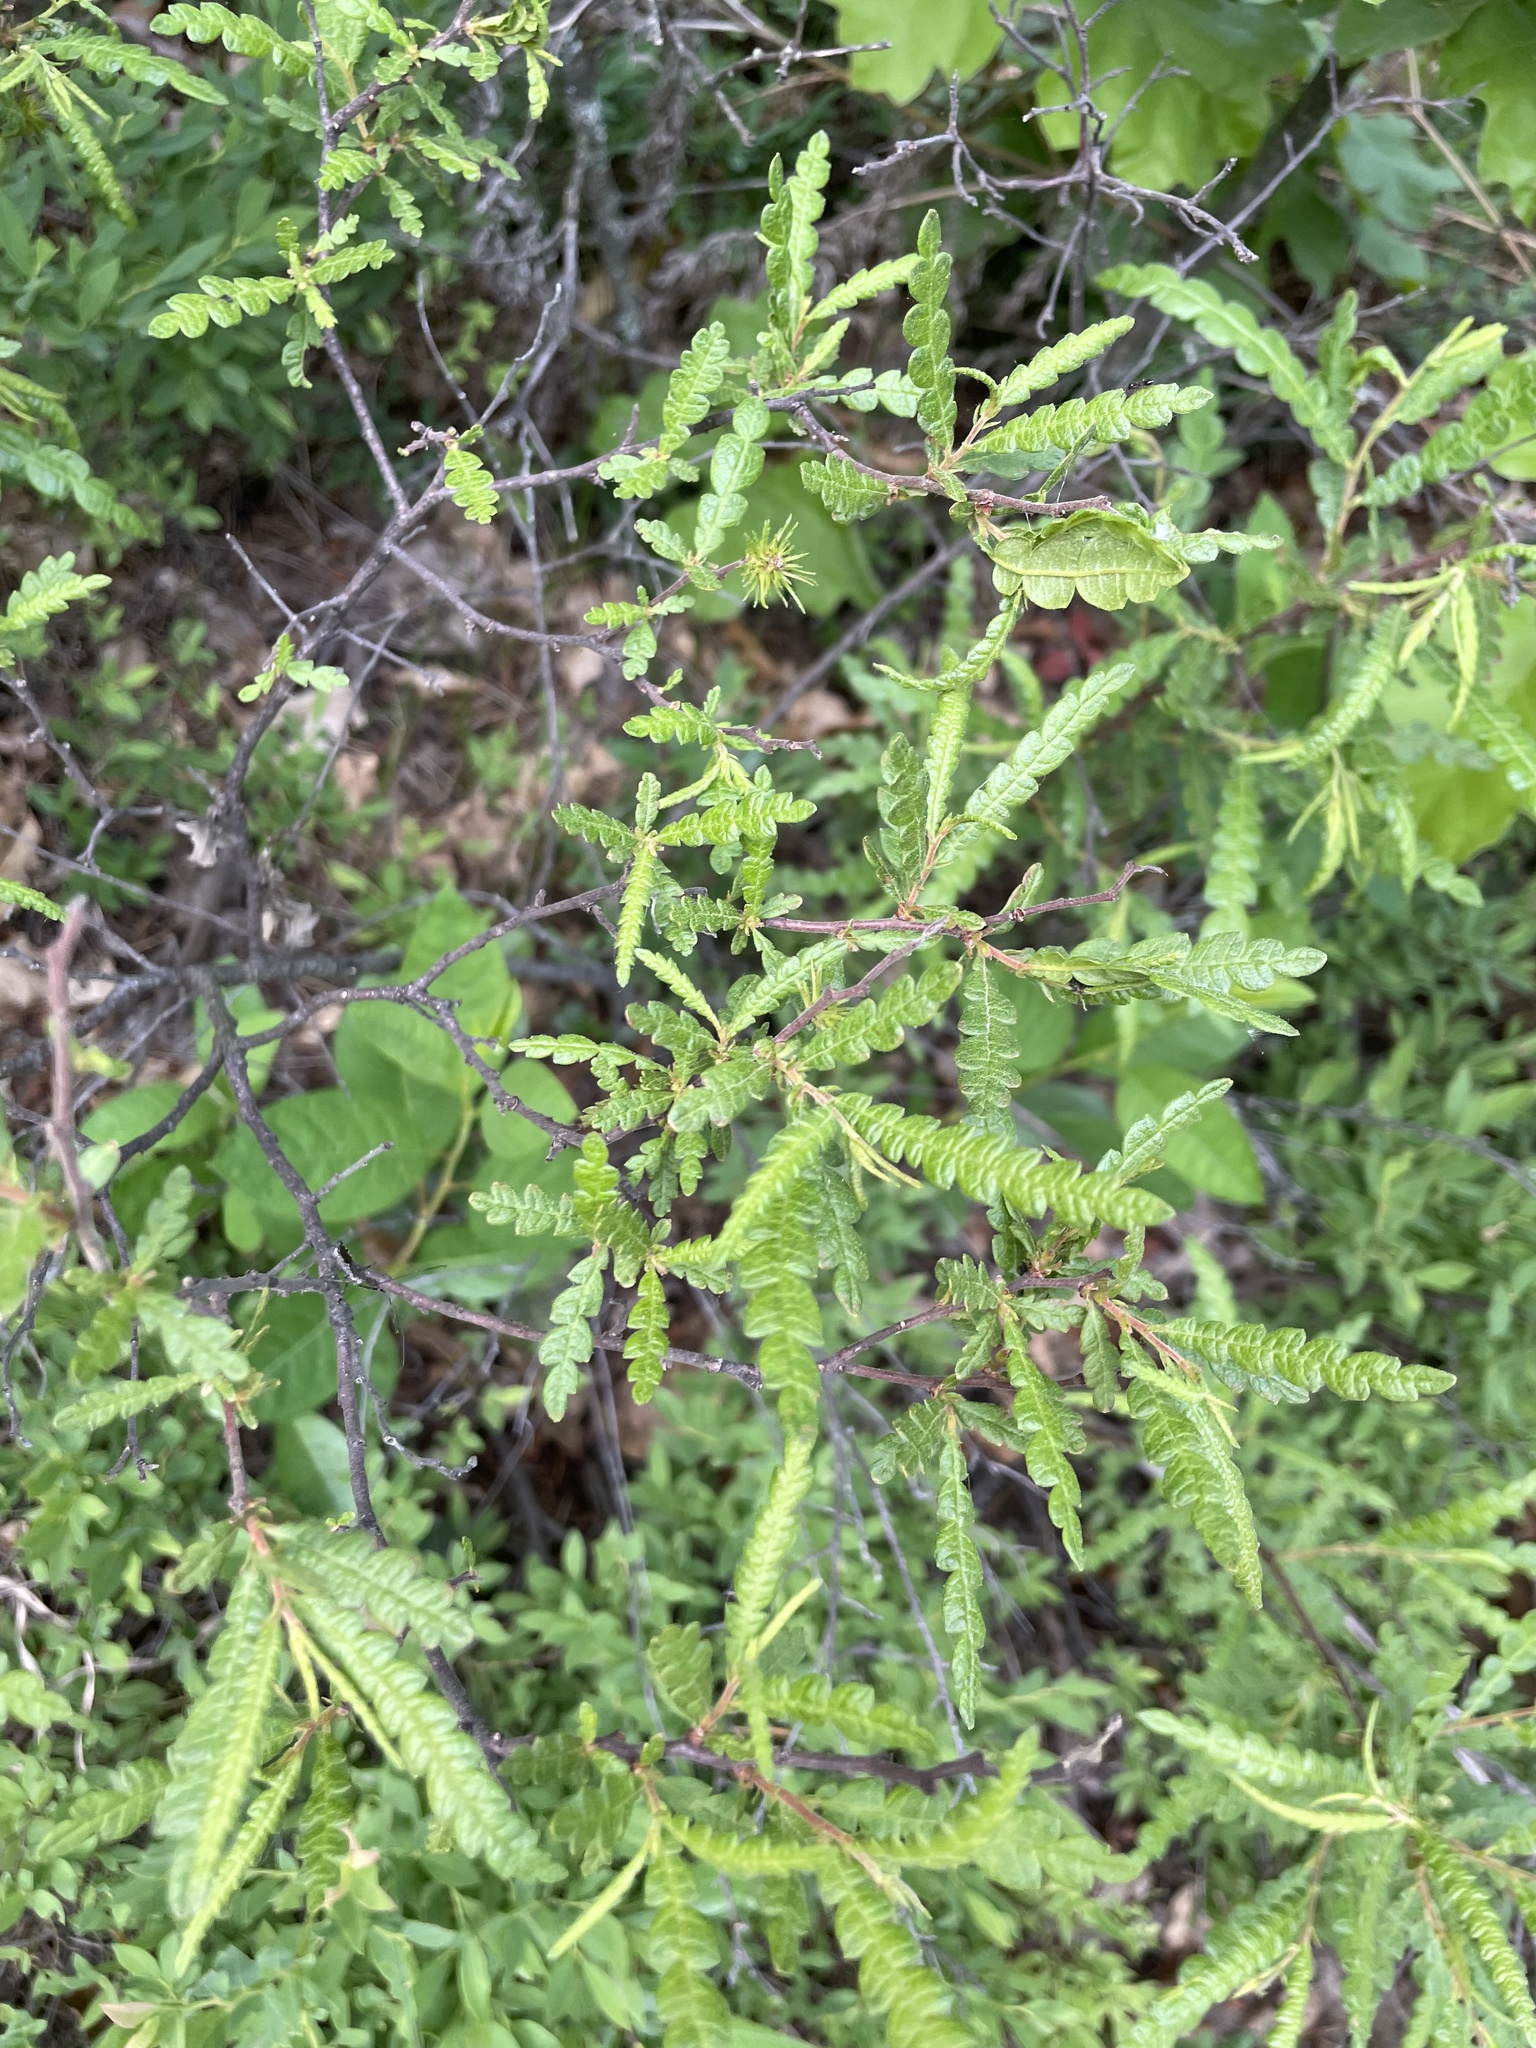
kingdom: Plantae
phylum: Tracheophyta
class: Magnoliopsida
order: Fagales
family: Myricaceae
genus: Comptonia
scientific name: Comptonia peregrina
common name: Sweet-fern
